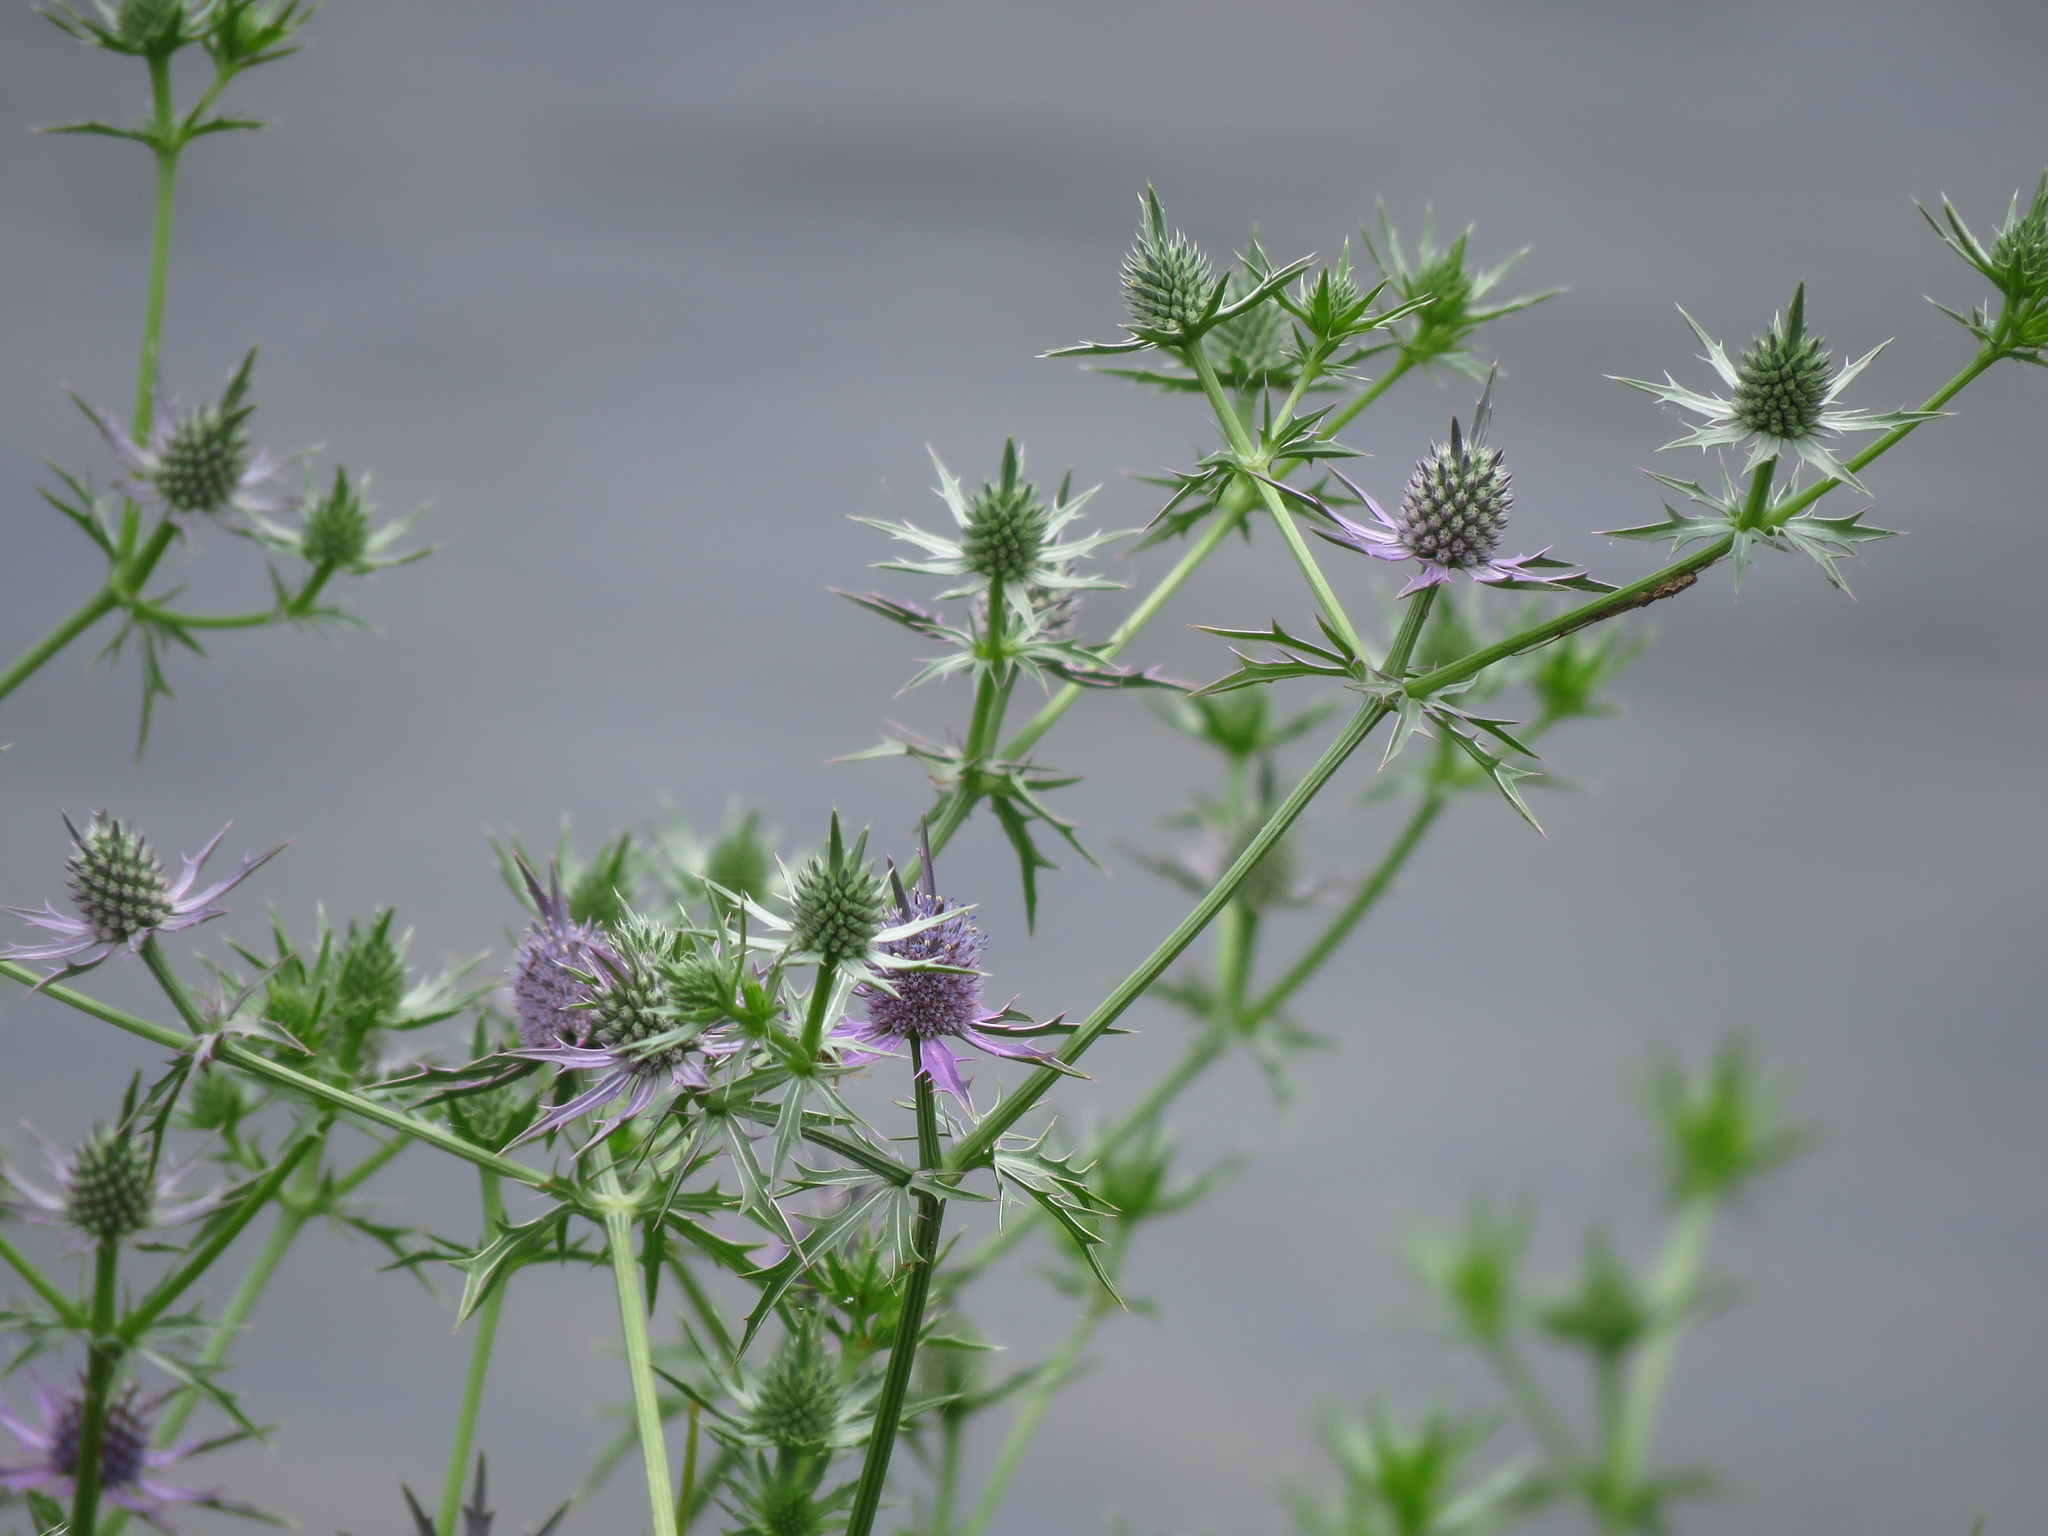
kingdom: Plantae
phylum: Tracheophyta
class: Magnoliopsida
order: Apiales
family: Apiaceae
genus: Eryngium
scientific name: Eryngium hookeri
